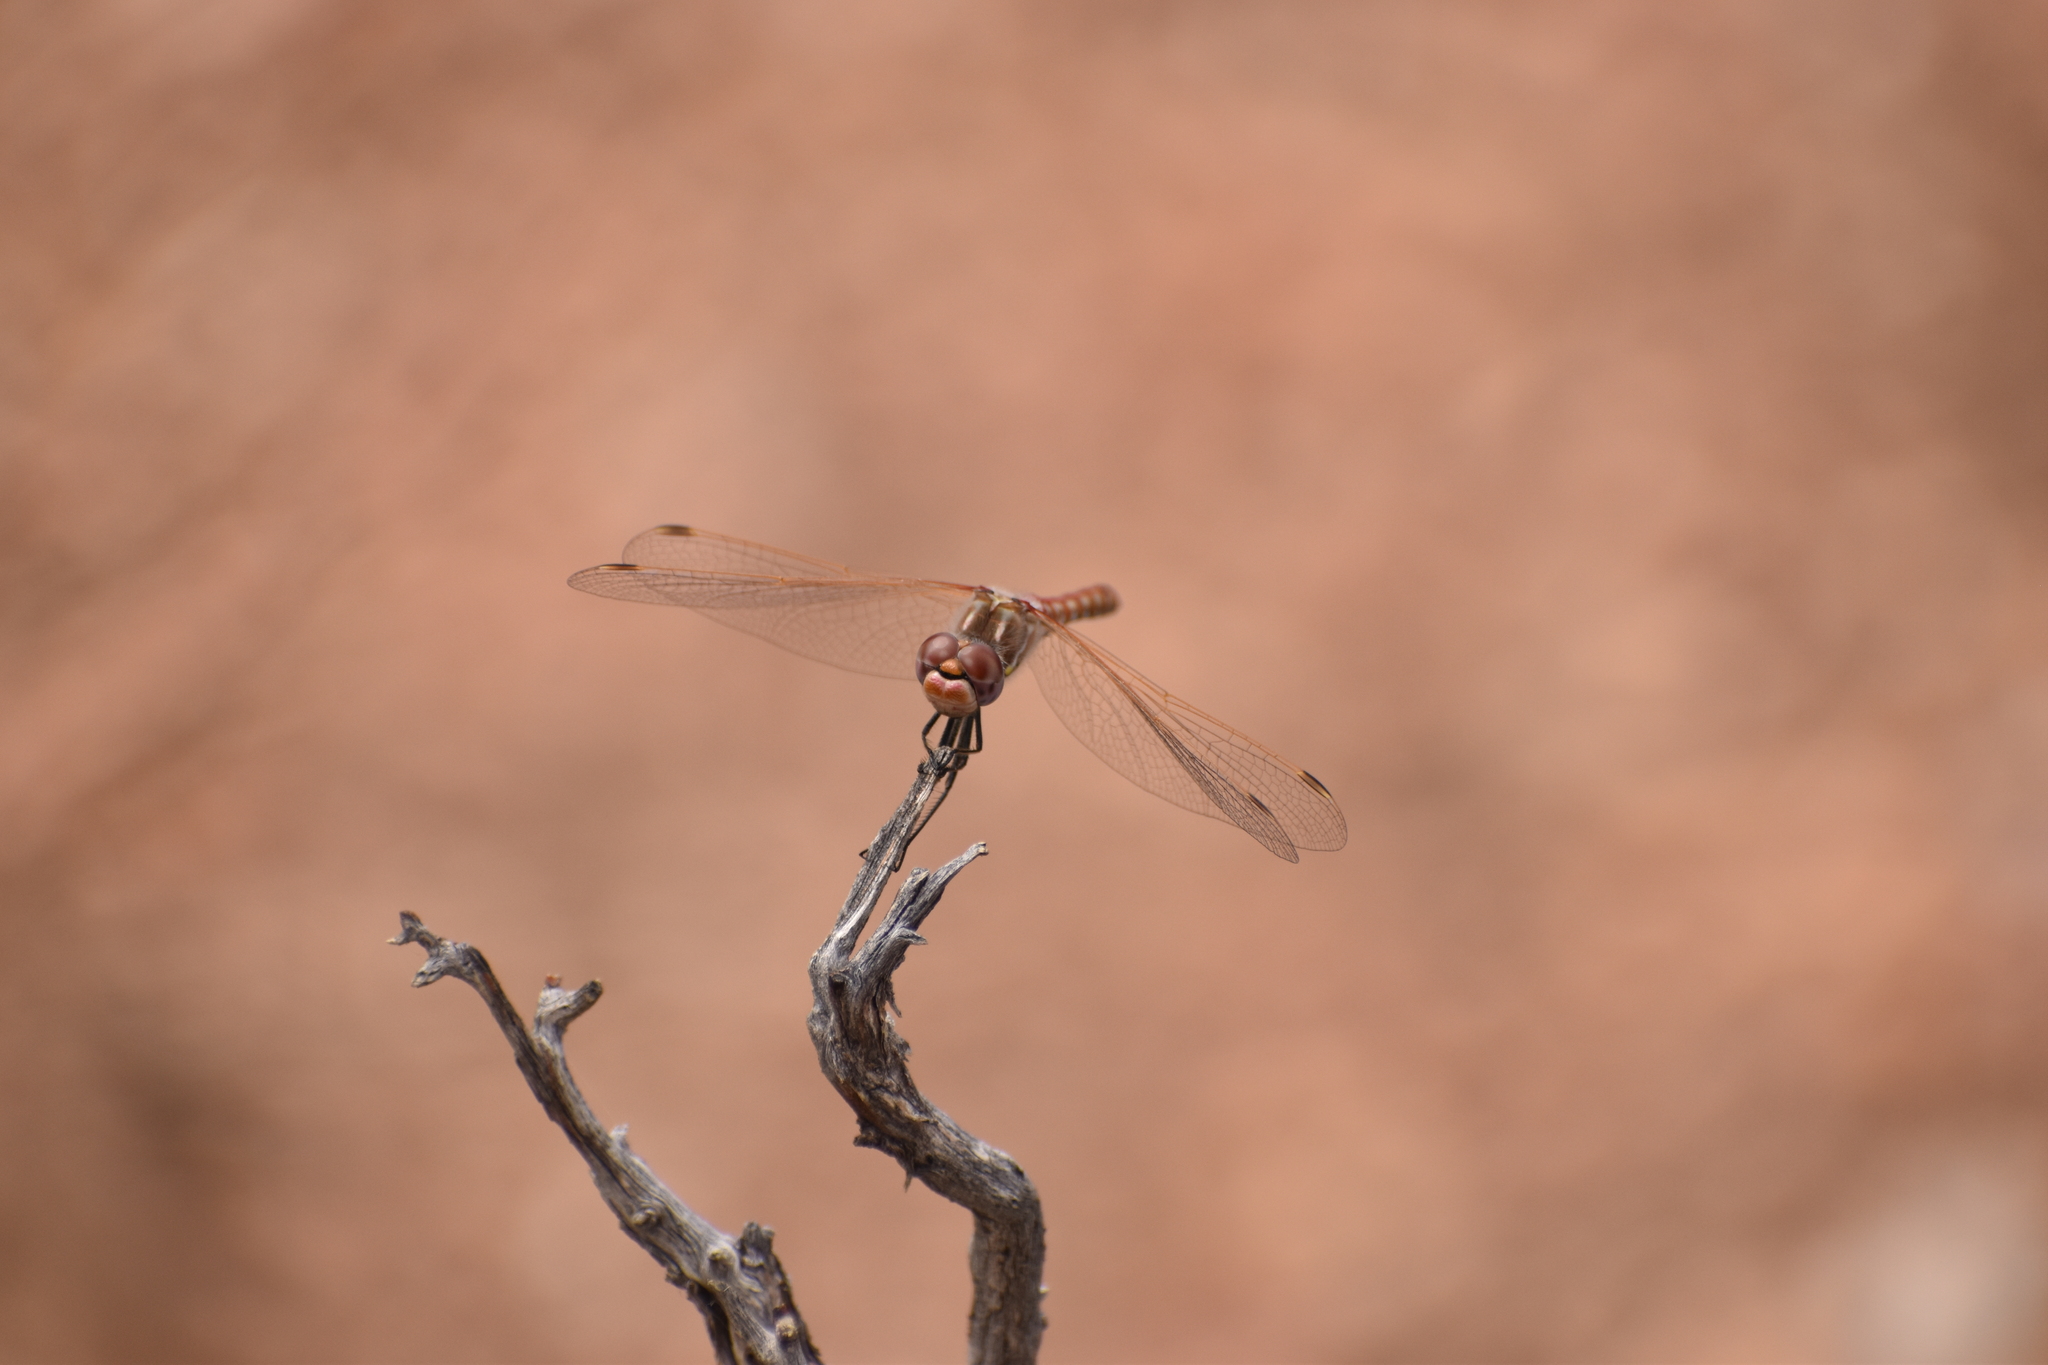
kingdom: Animalia
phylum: Arthropoda
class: Insecta
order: Odonata
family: Libellulidae
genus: Sympetrum
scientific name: Sympetrum corruptum
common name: Variegated meadowhawk
